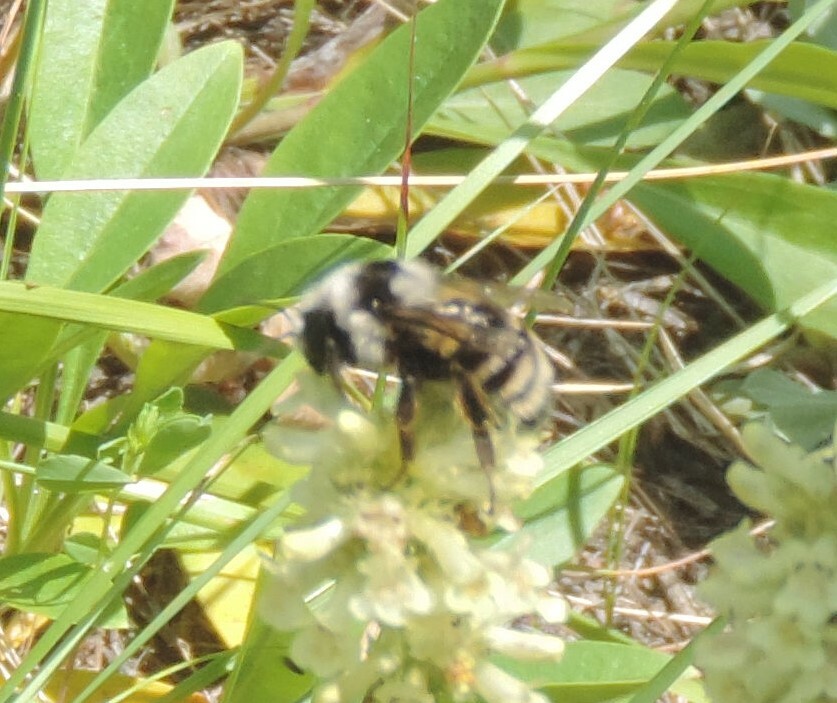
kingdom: Animalia
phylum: Arthropoda
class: Insecta
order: Hymenoptera
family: Apidae
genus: Bombus
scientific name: Bombus vancouverensis
